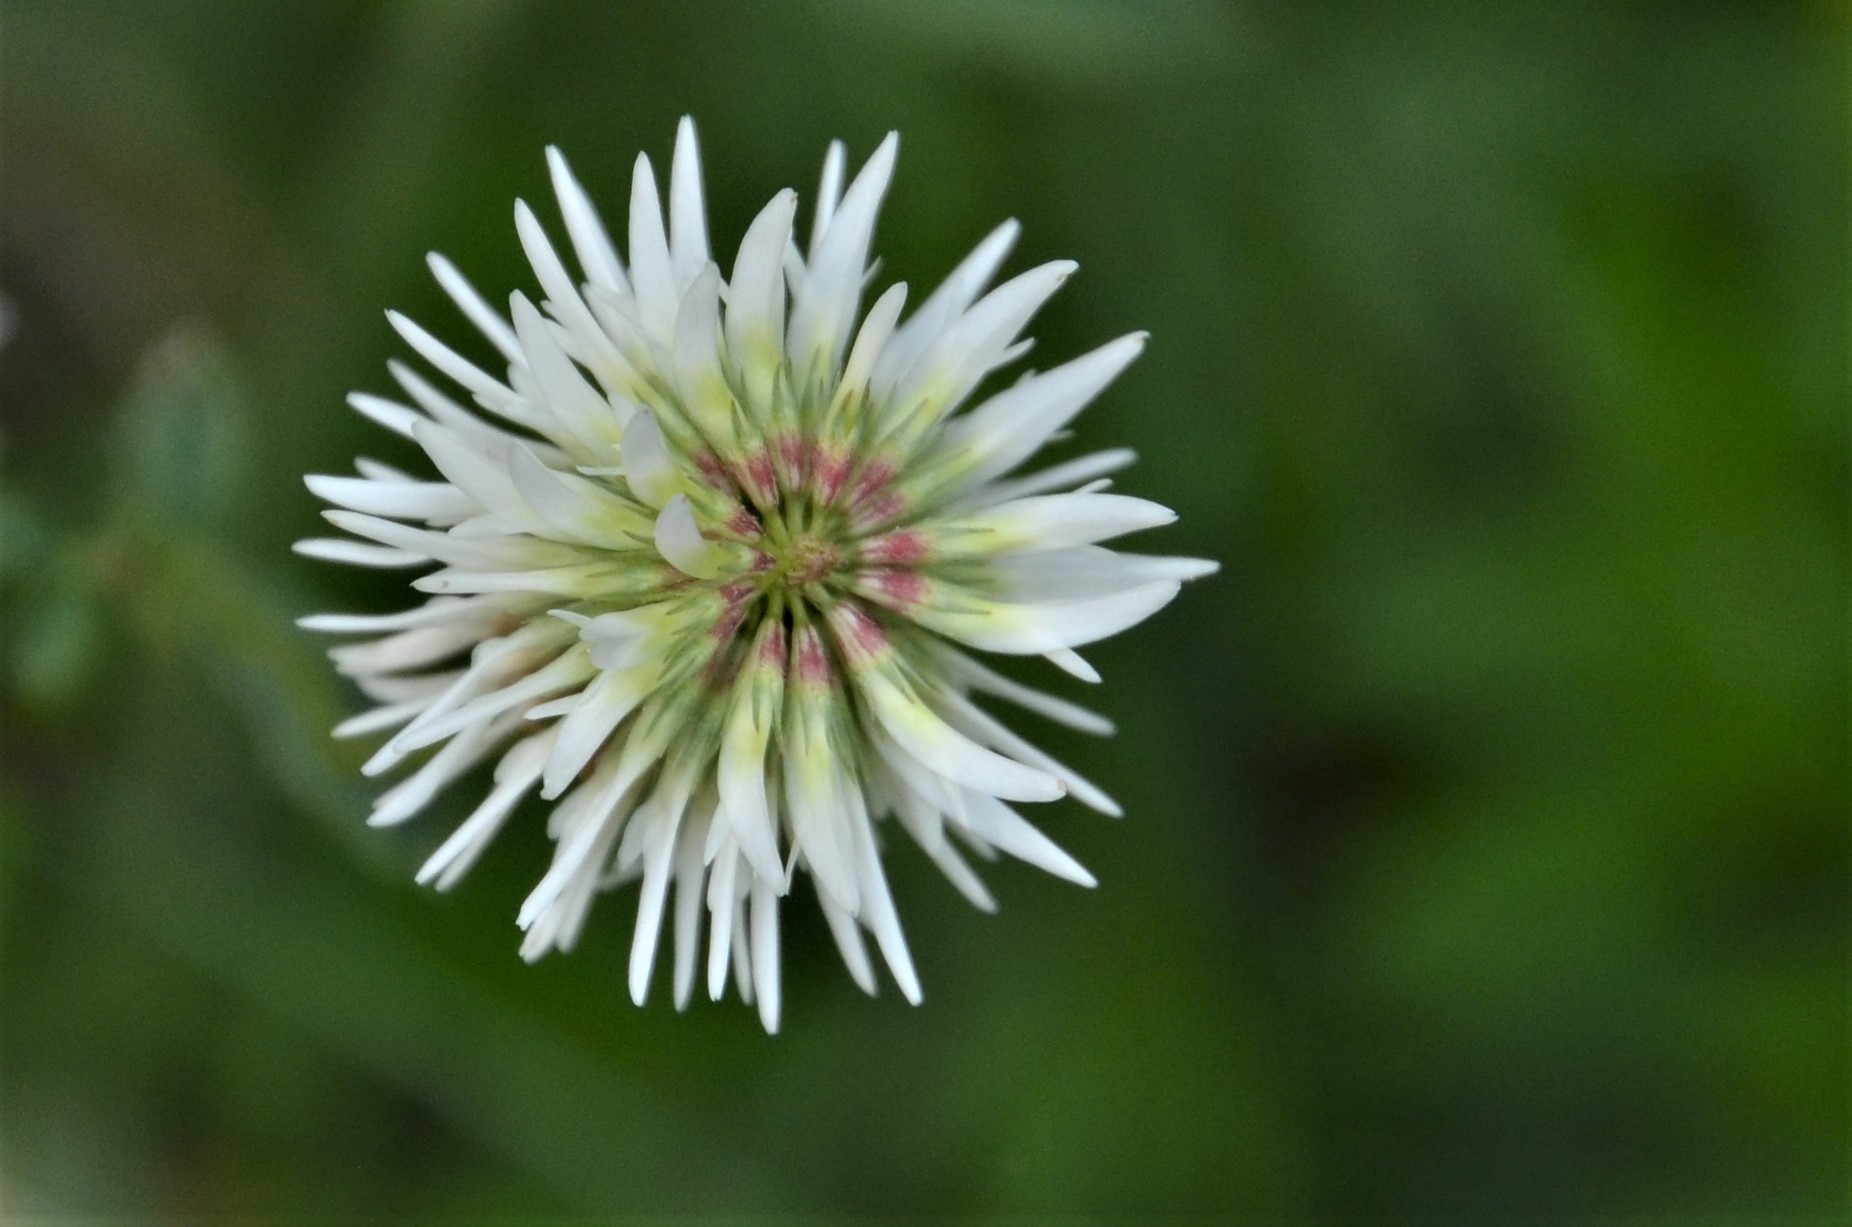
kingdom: Plantae
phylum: Tracheophyta
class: Magnoliopsida
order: Fabales
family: Fabaceae
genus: Trifolium
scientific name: Trifolium montanum
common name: Mountain clover
